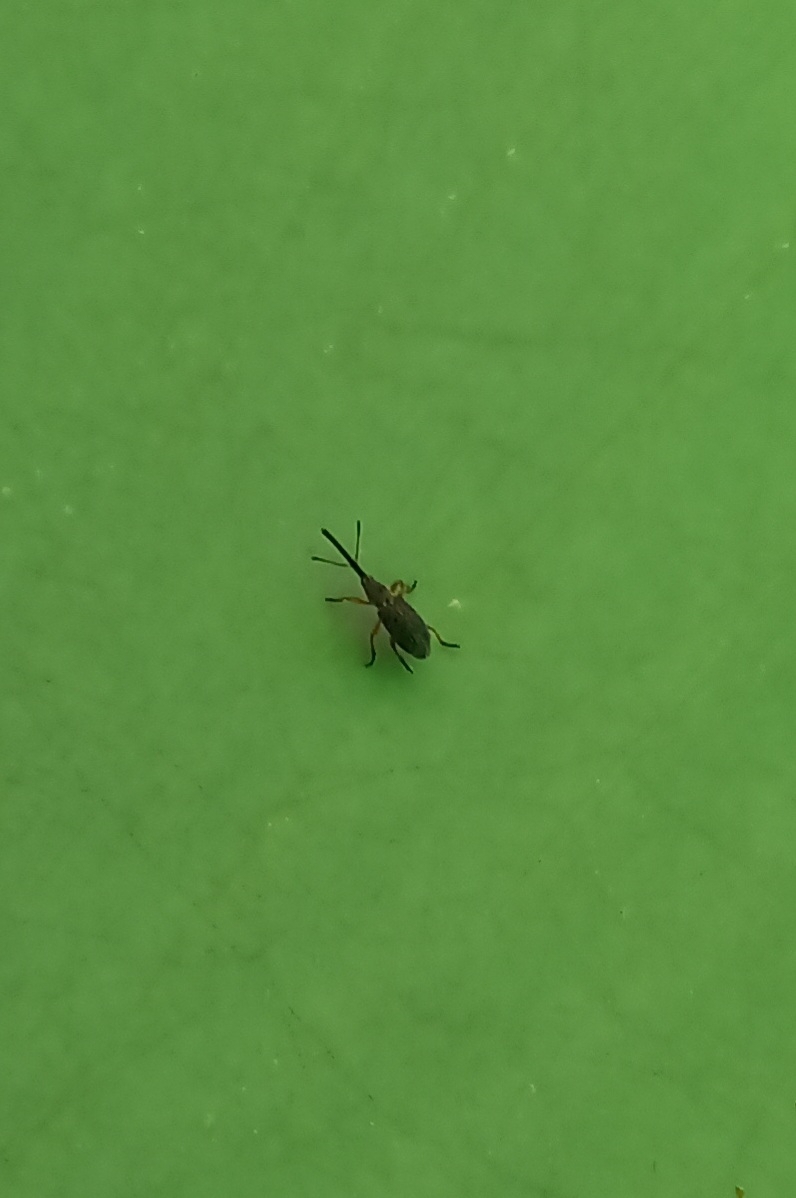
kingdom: Animalia
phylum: Arthropoda
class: Insecta
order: Coleoptera
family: Brentidae
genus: Rhopalapion
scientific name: Rhopalapion longirostre
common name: Hollyhock weevil
